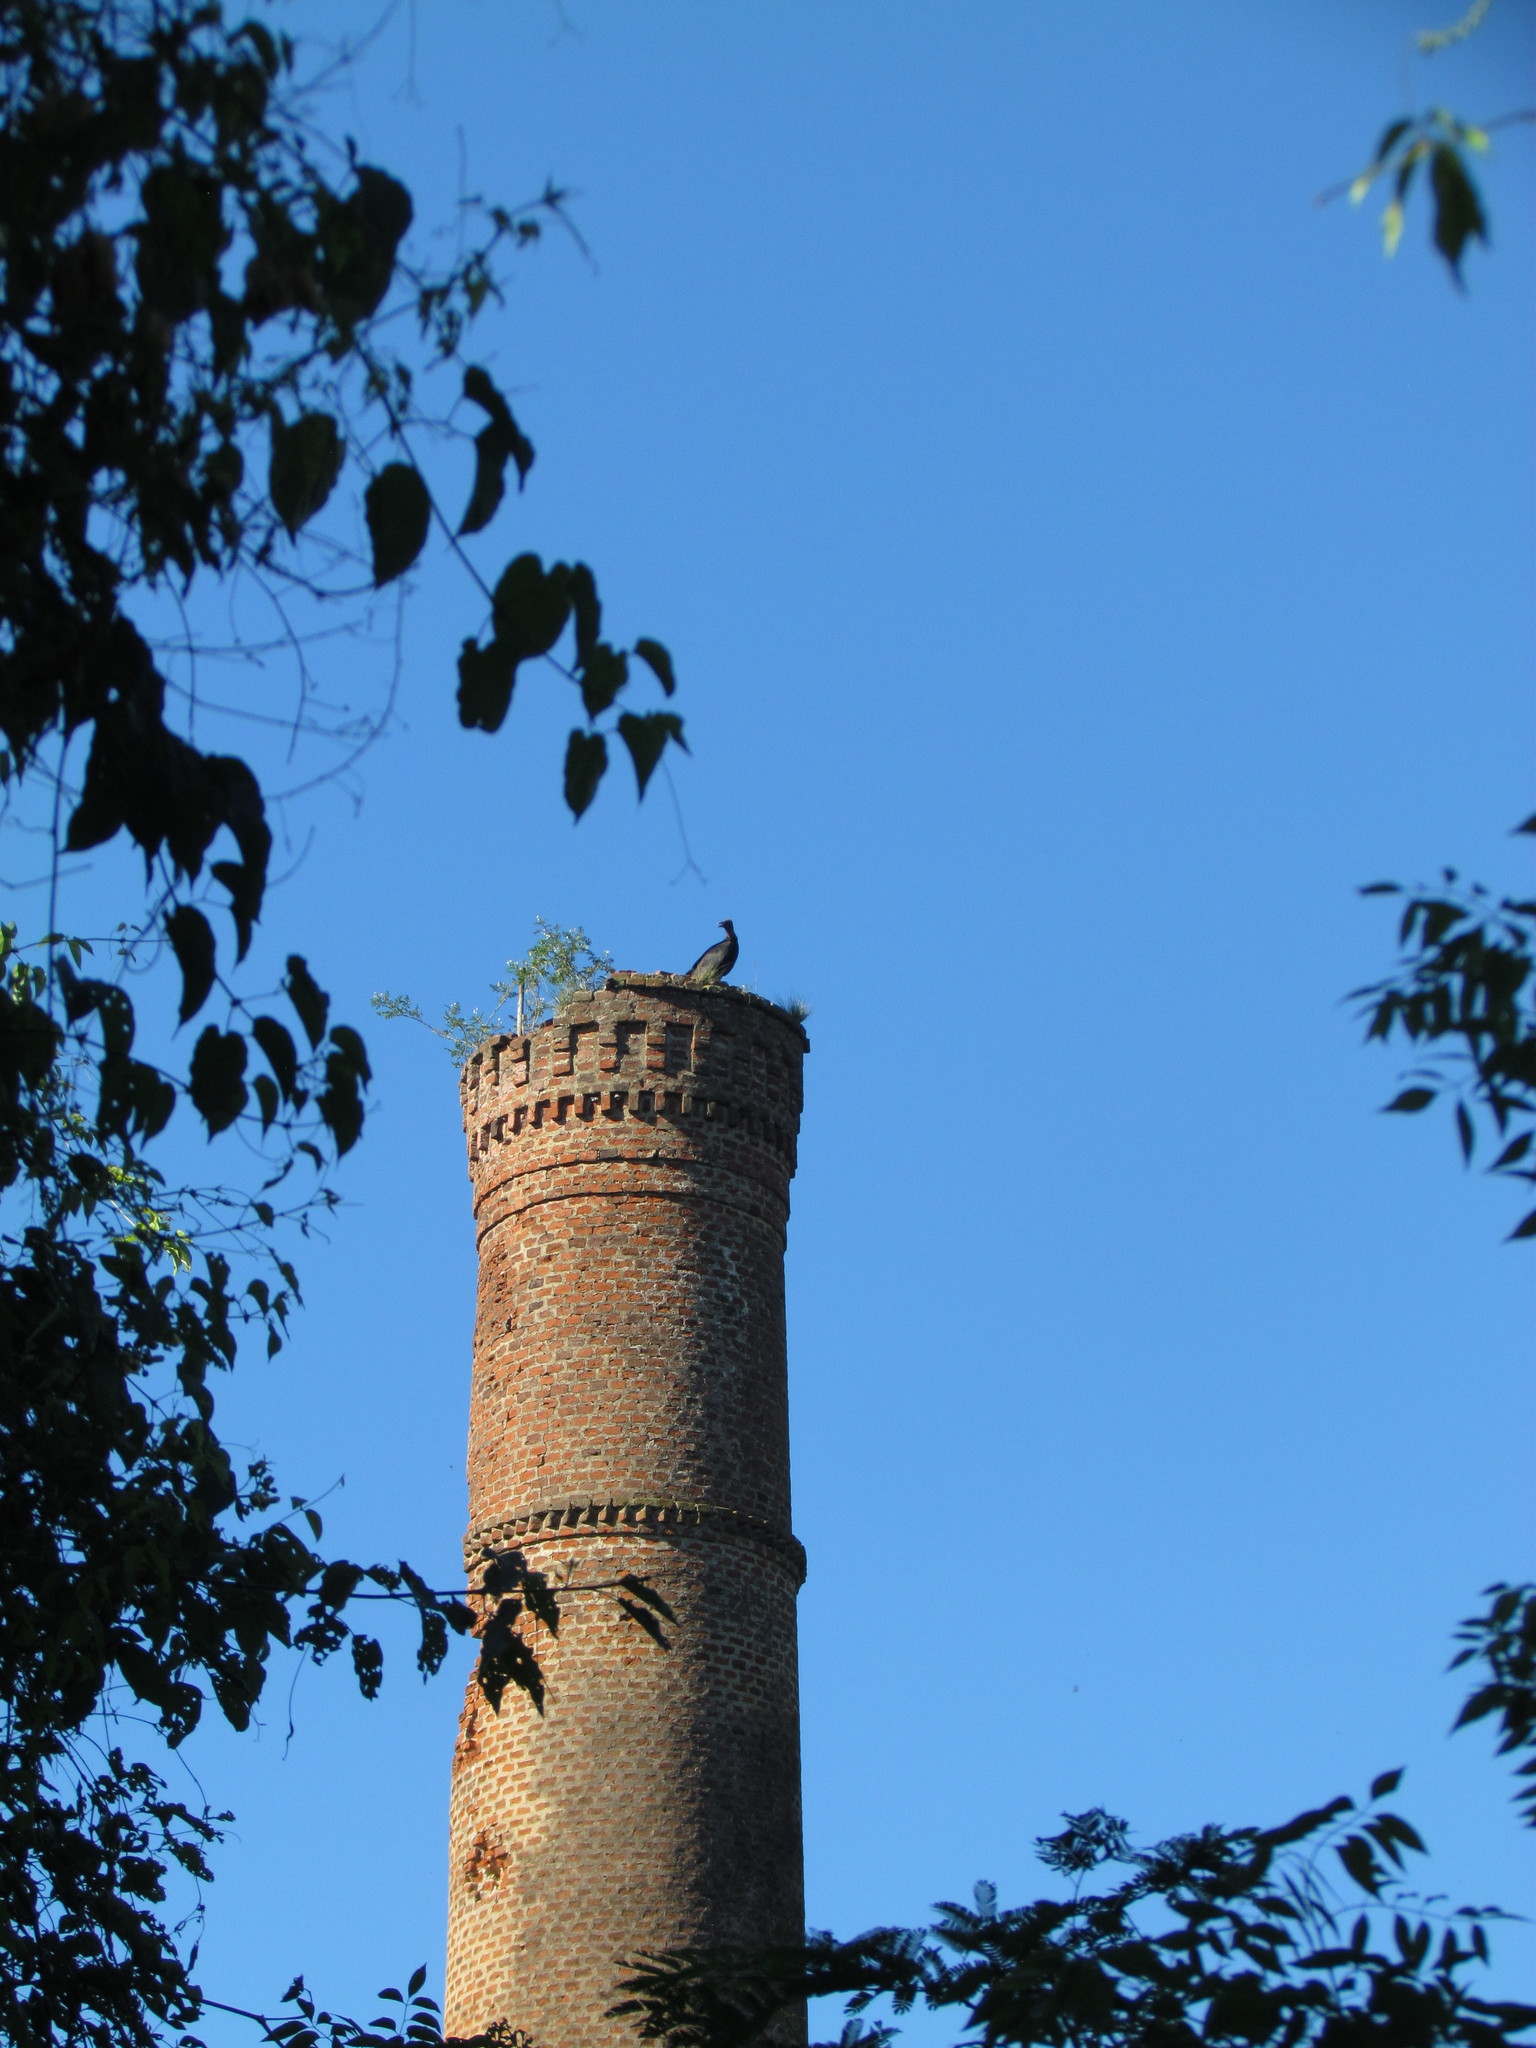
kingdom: Animalia
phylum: Chordata
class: Aves
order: Accipitriformes
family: Cathartidae
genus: Coragyps
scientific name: Coragyps atratus
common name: Black vulture
